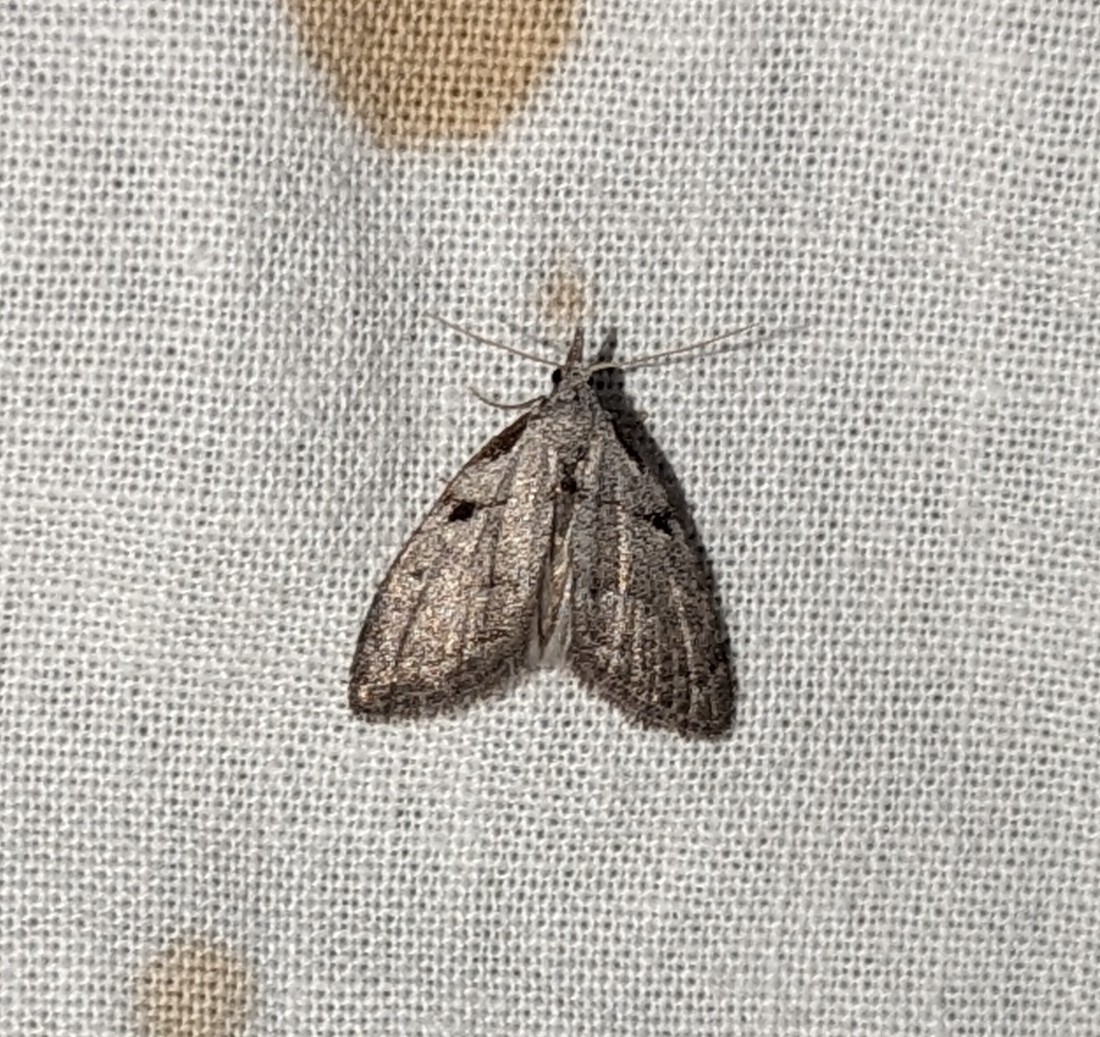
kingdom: Animalia
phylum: Arthropoda
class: Insecta
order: Lepidoptera
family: Nolidae
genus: Nola
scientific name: Nola minna
